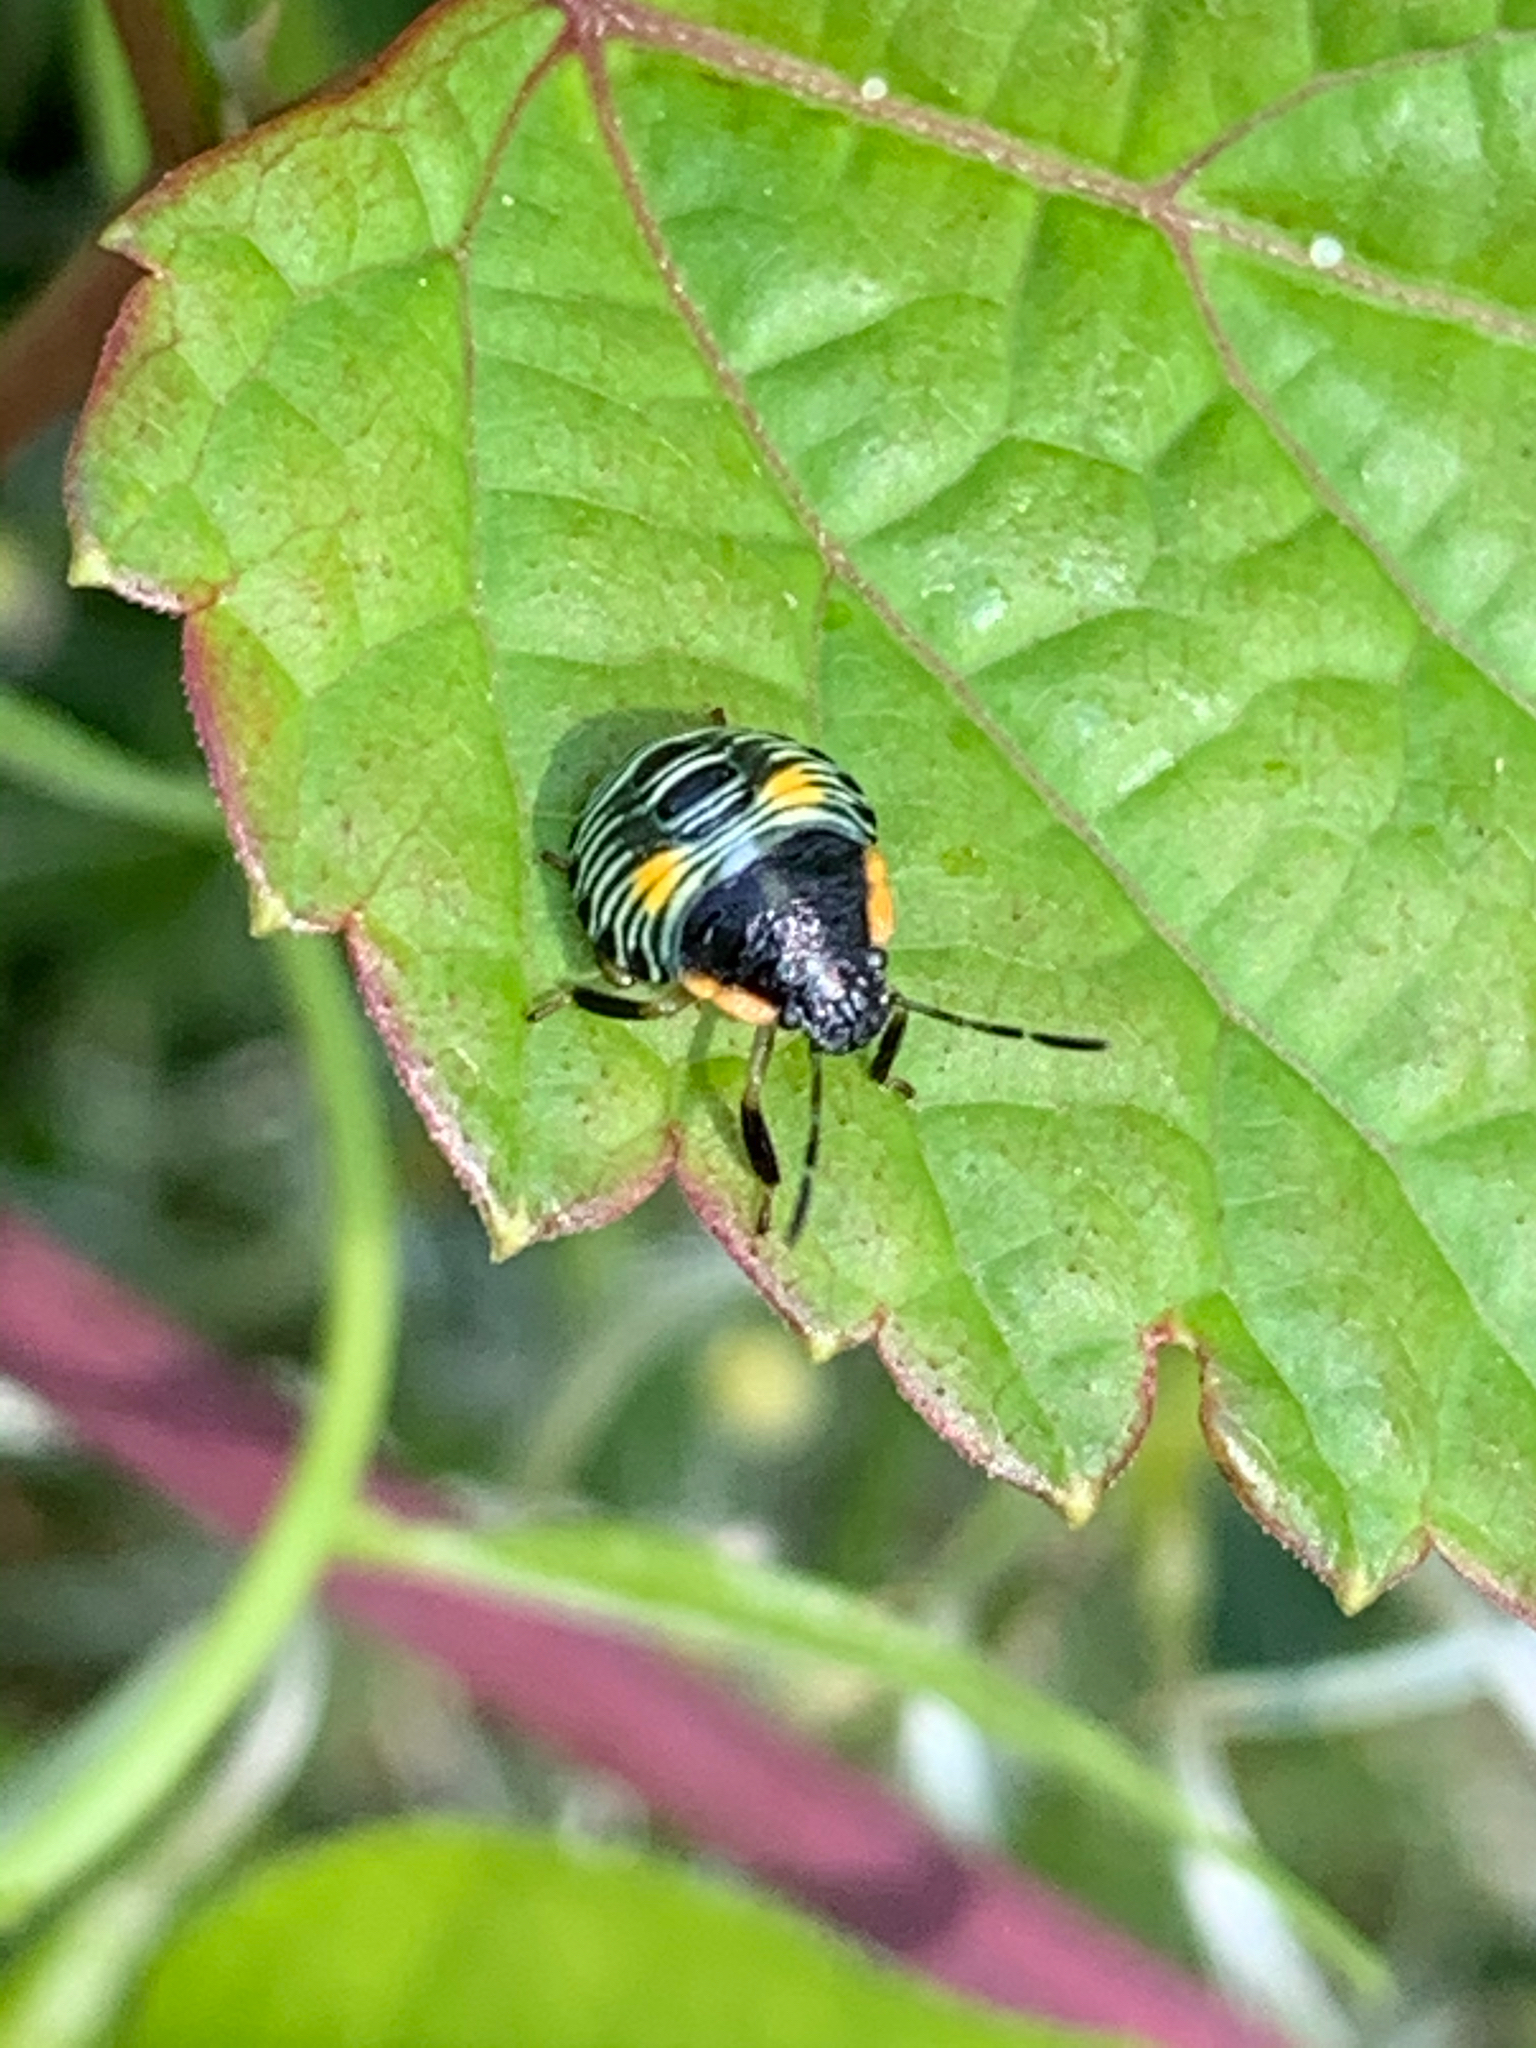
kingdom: Animalia
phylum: Arthropoda
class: Insecta
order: Hemiptera
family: Pentatomidae
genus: Chinavia
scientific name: Chinavia hilaris
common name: Green stink bug
